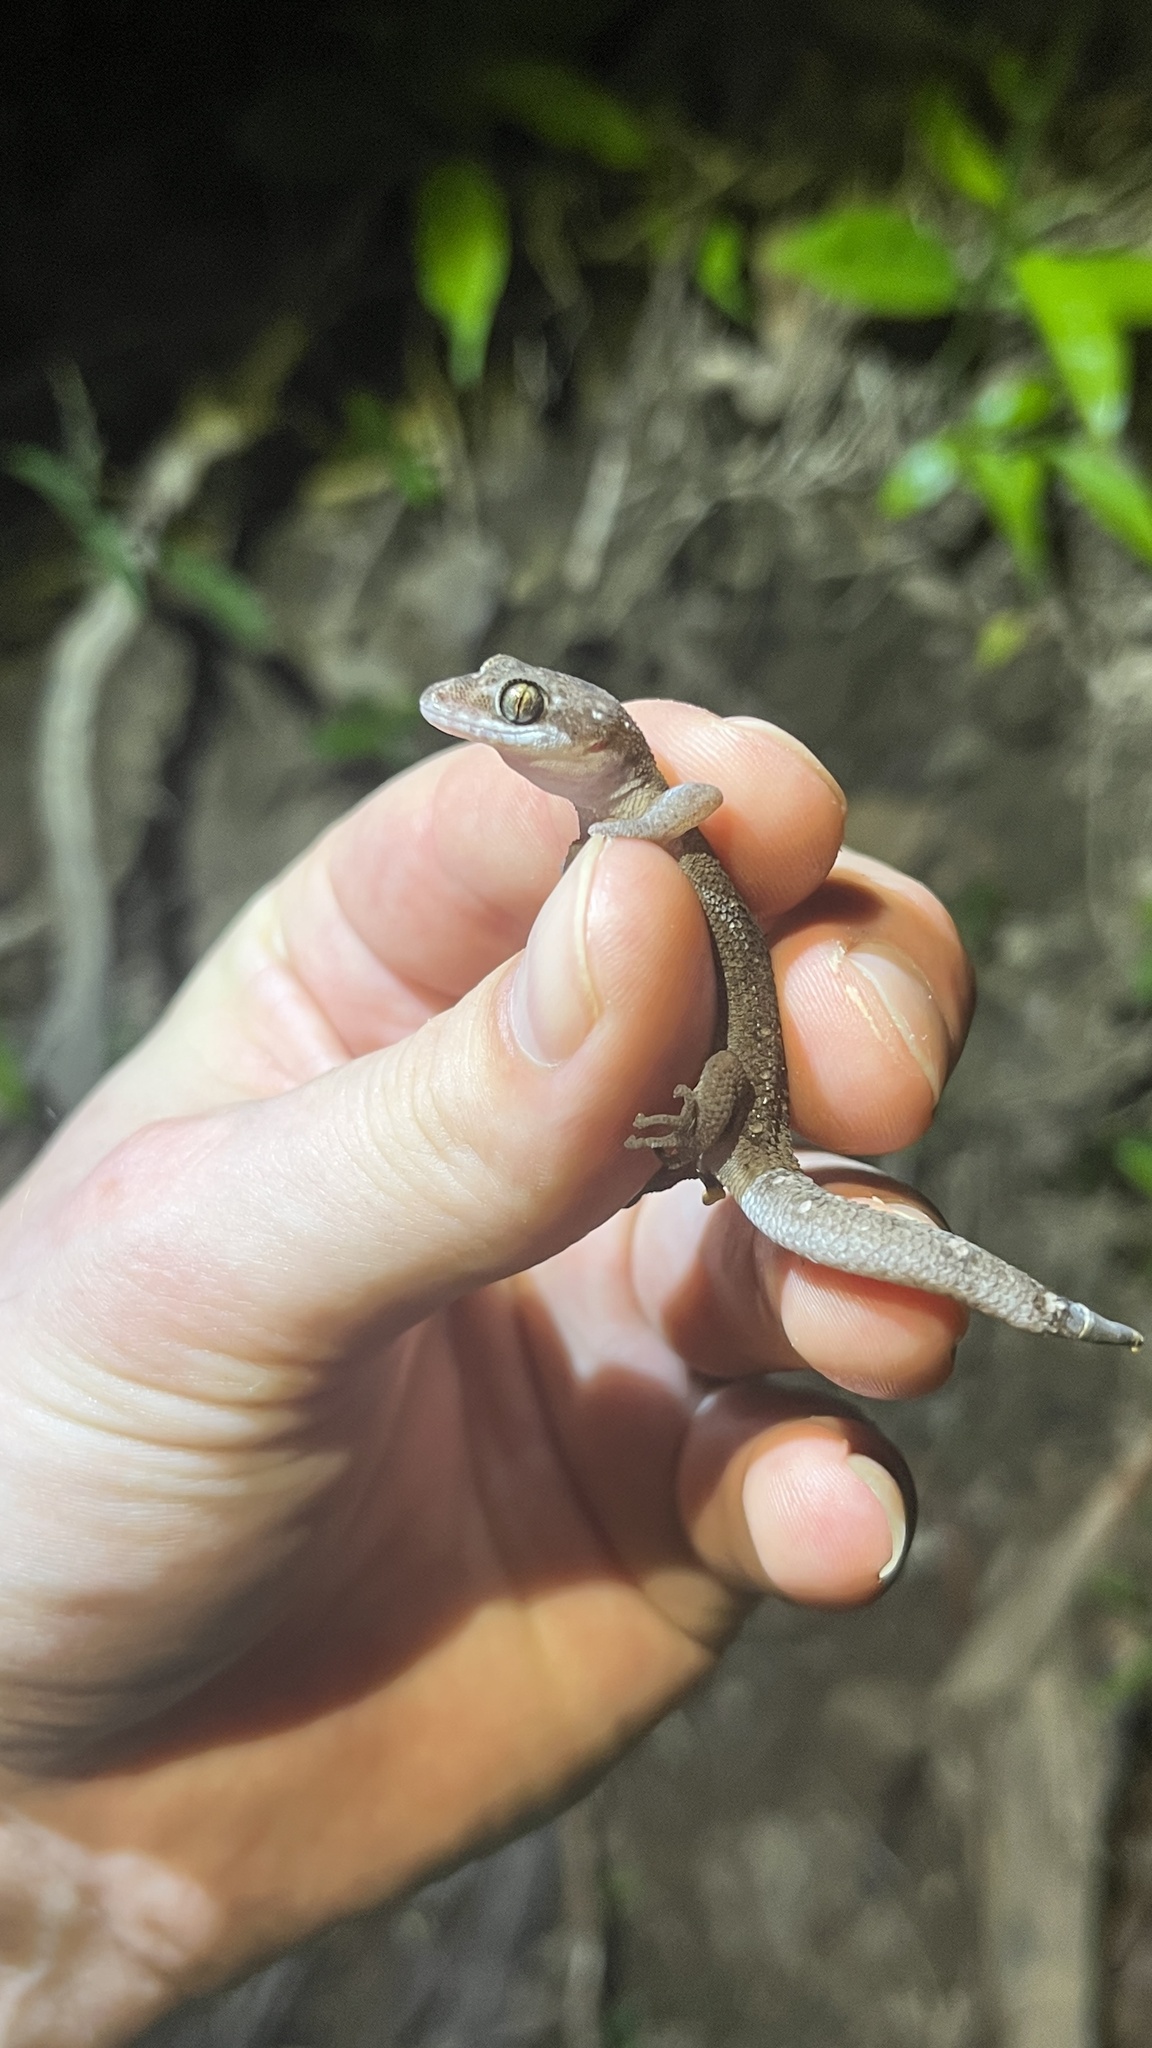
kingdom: Animalia
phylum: Chordata
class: Squamata
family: Gekkonidae
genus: Dixonius
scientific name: Dixonius siamensis
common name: Siamese leaf-toed gecko
